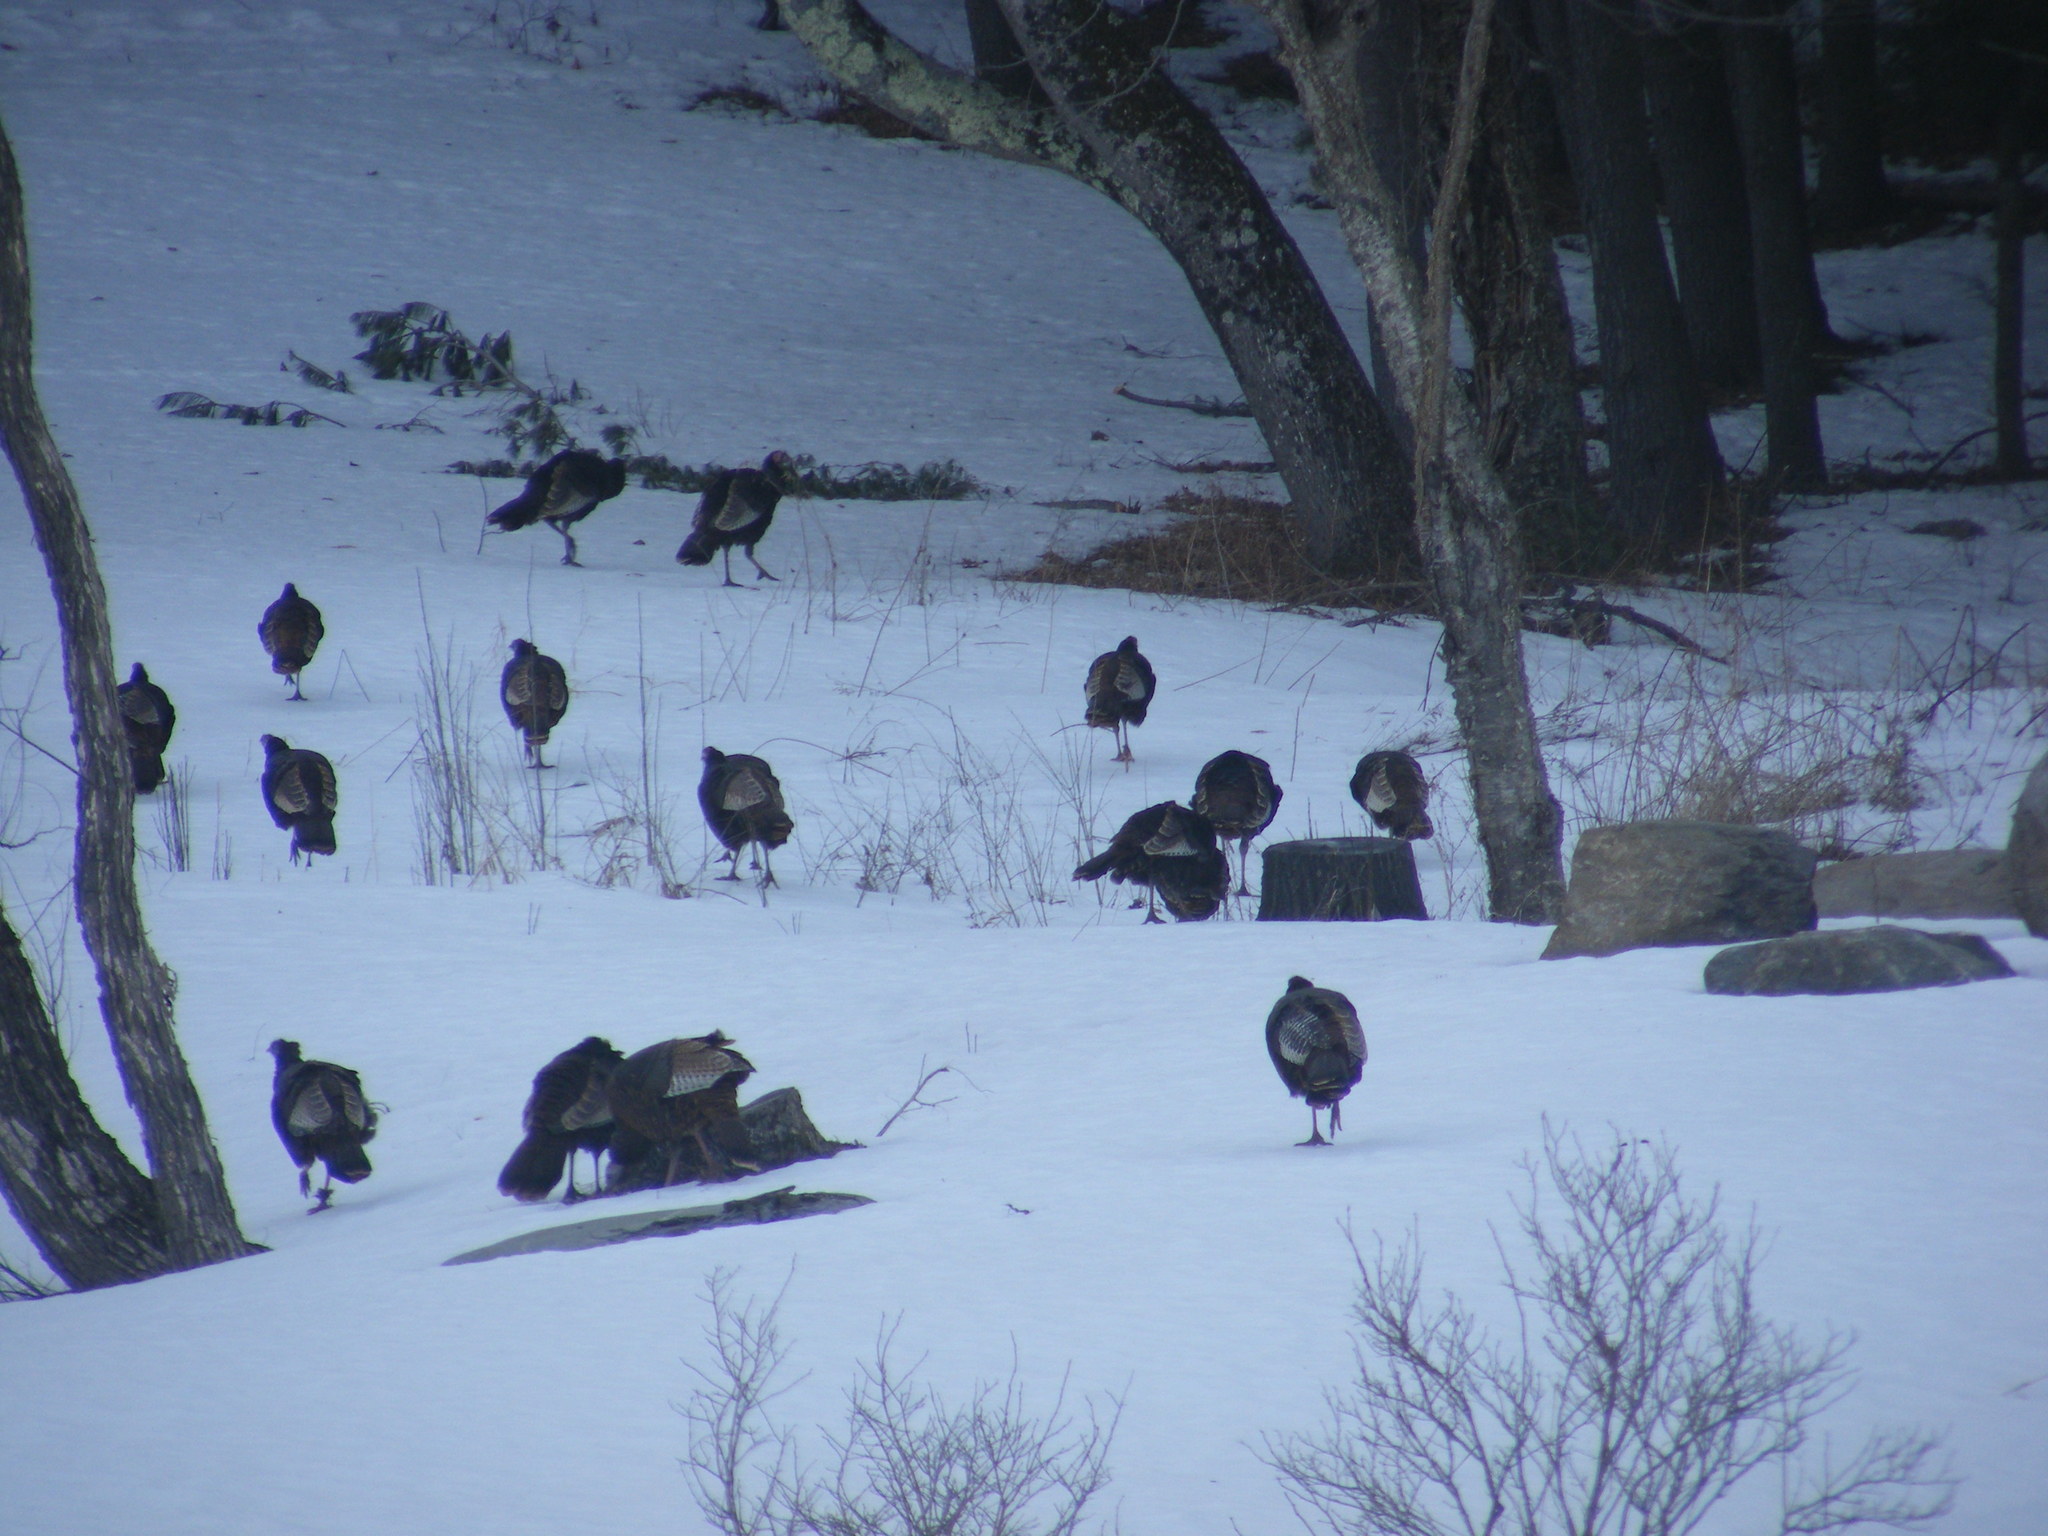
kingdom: Animalia
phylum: Chordata
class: Aves
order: Galliformes
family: Phasianidae
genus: Meleagris
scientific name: Meleagris gallopavo
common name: Wild turkey
